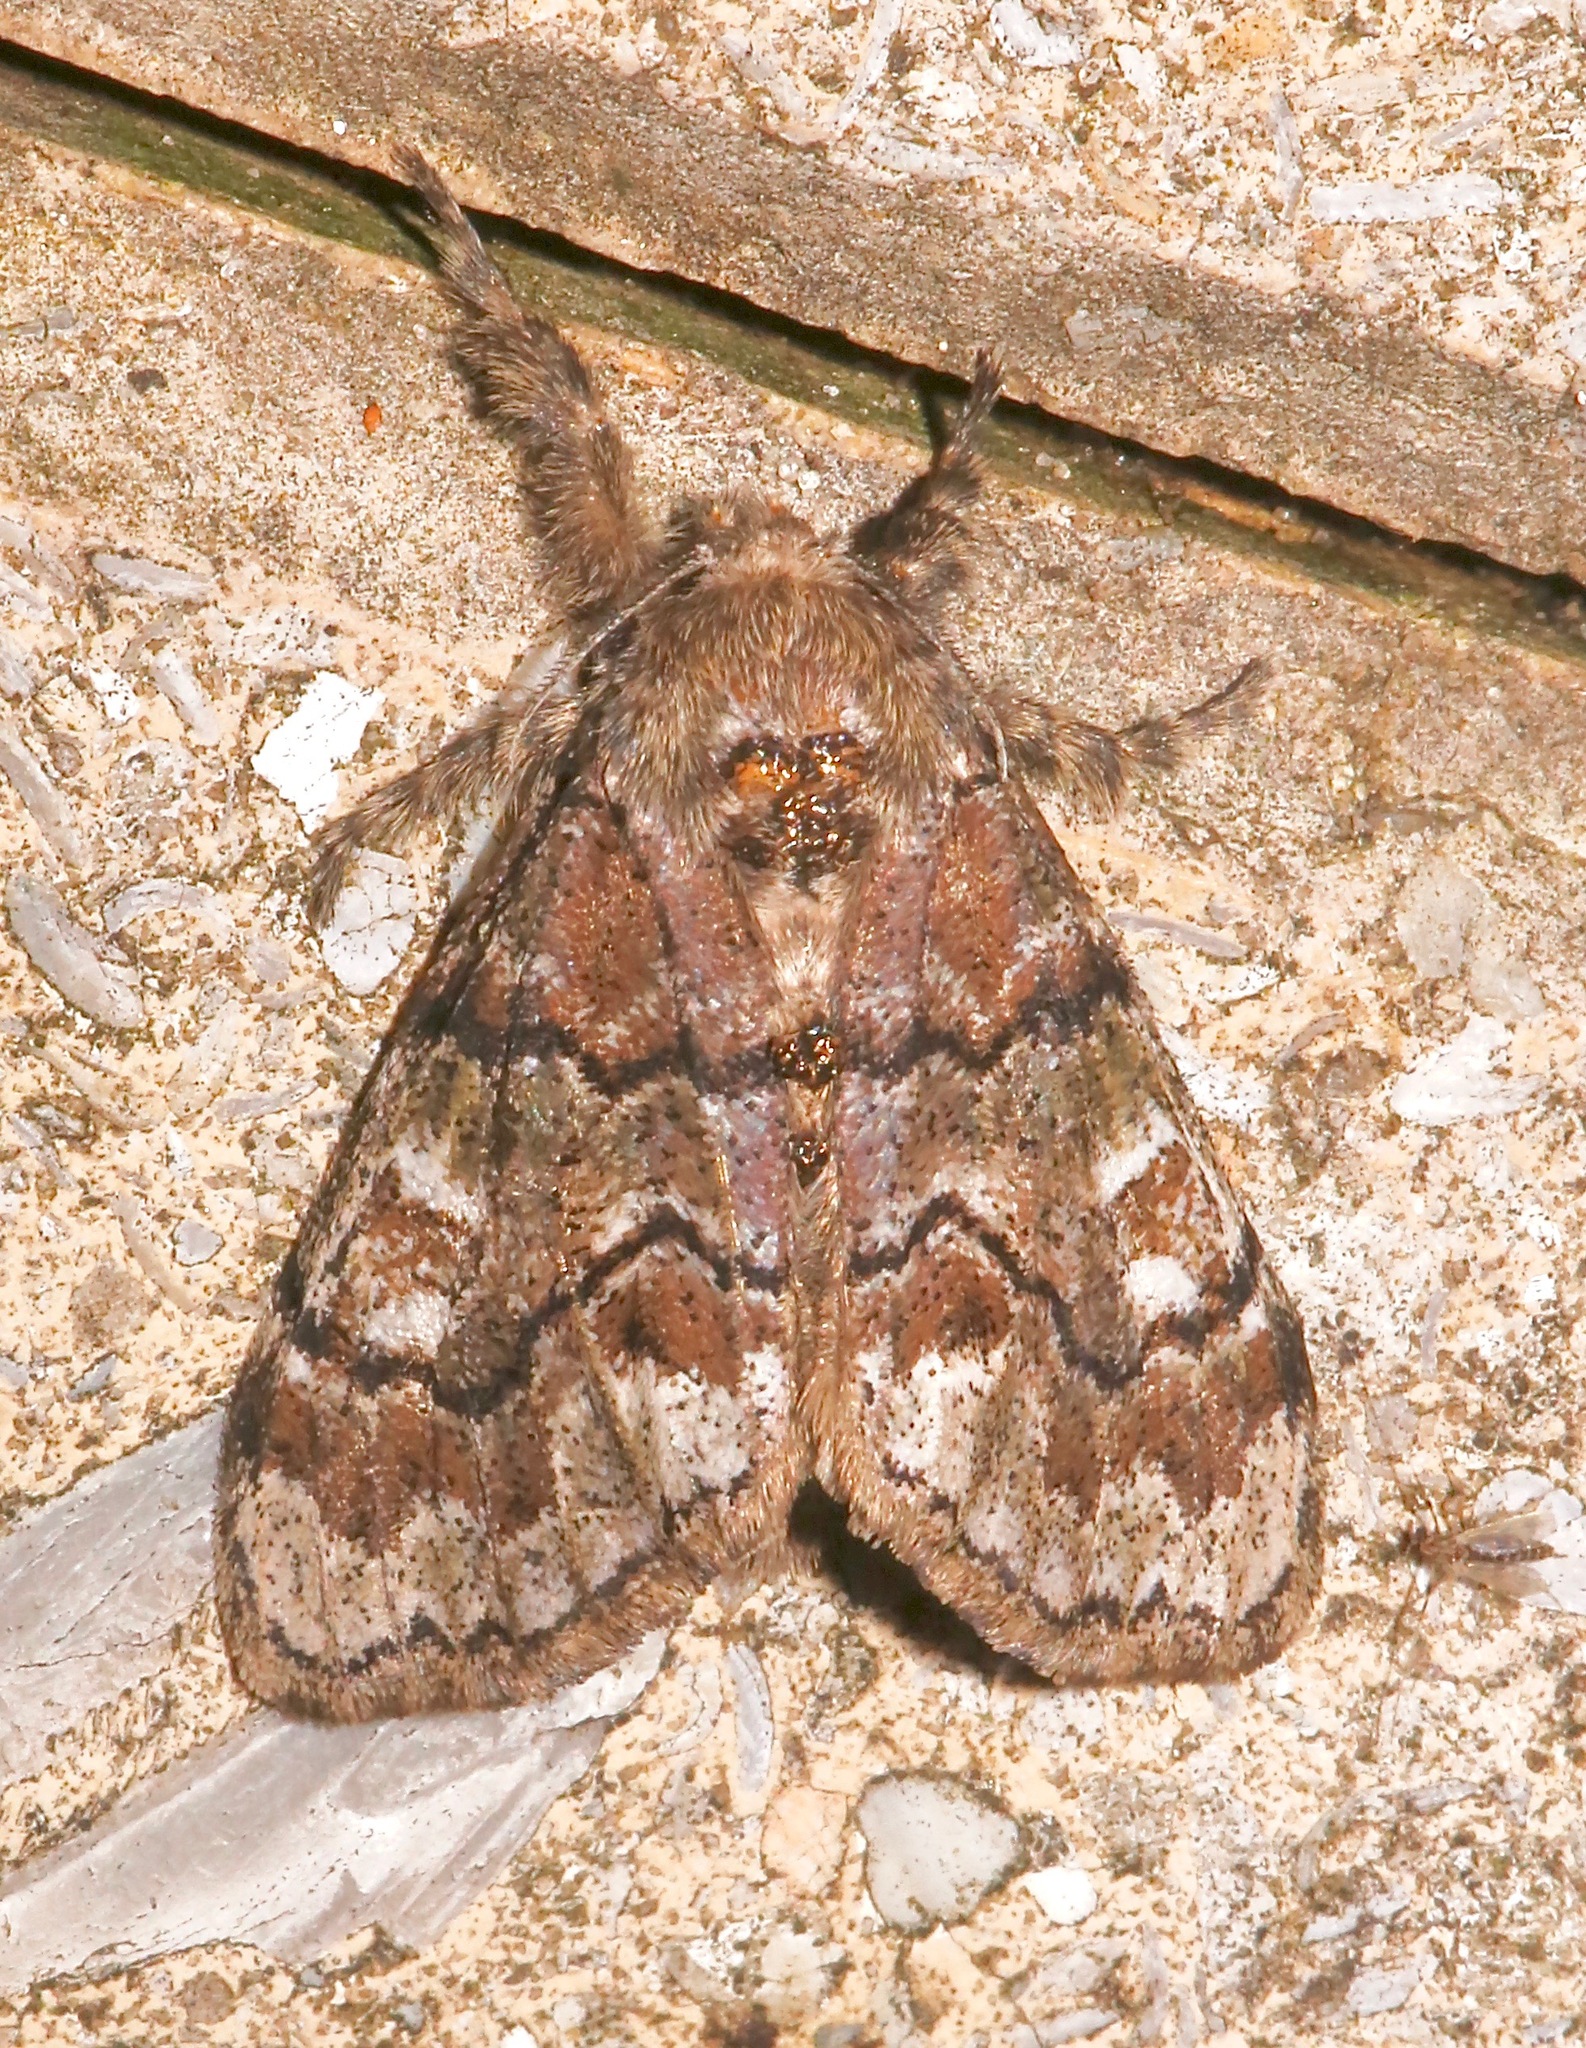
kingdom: Animalia
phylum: Arthropoda
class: Insecta
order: Lepidoptera
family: Erebidae
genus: Dasychira
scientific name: Dasychira manto
